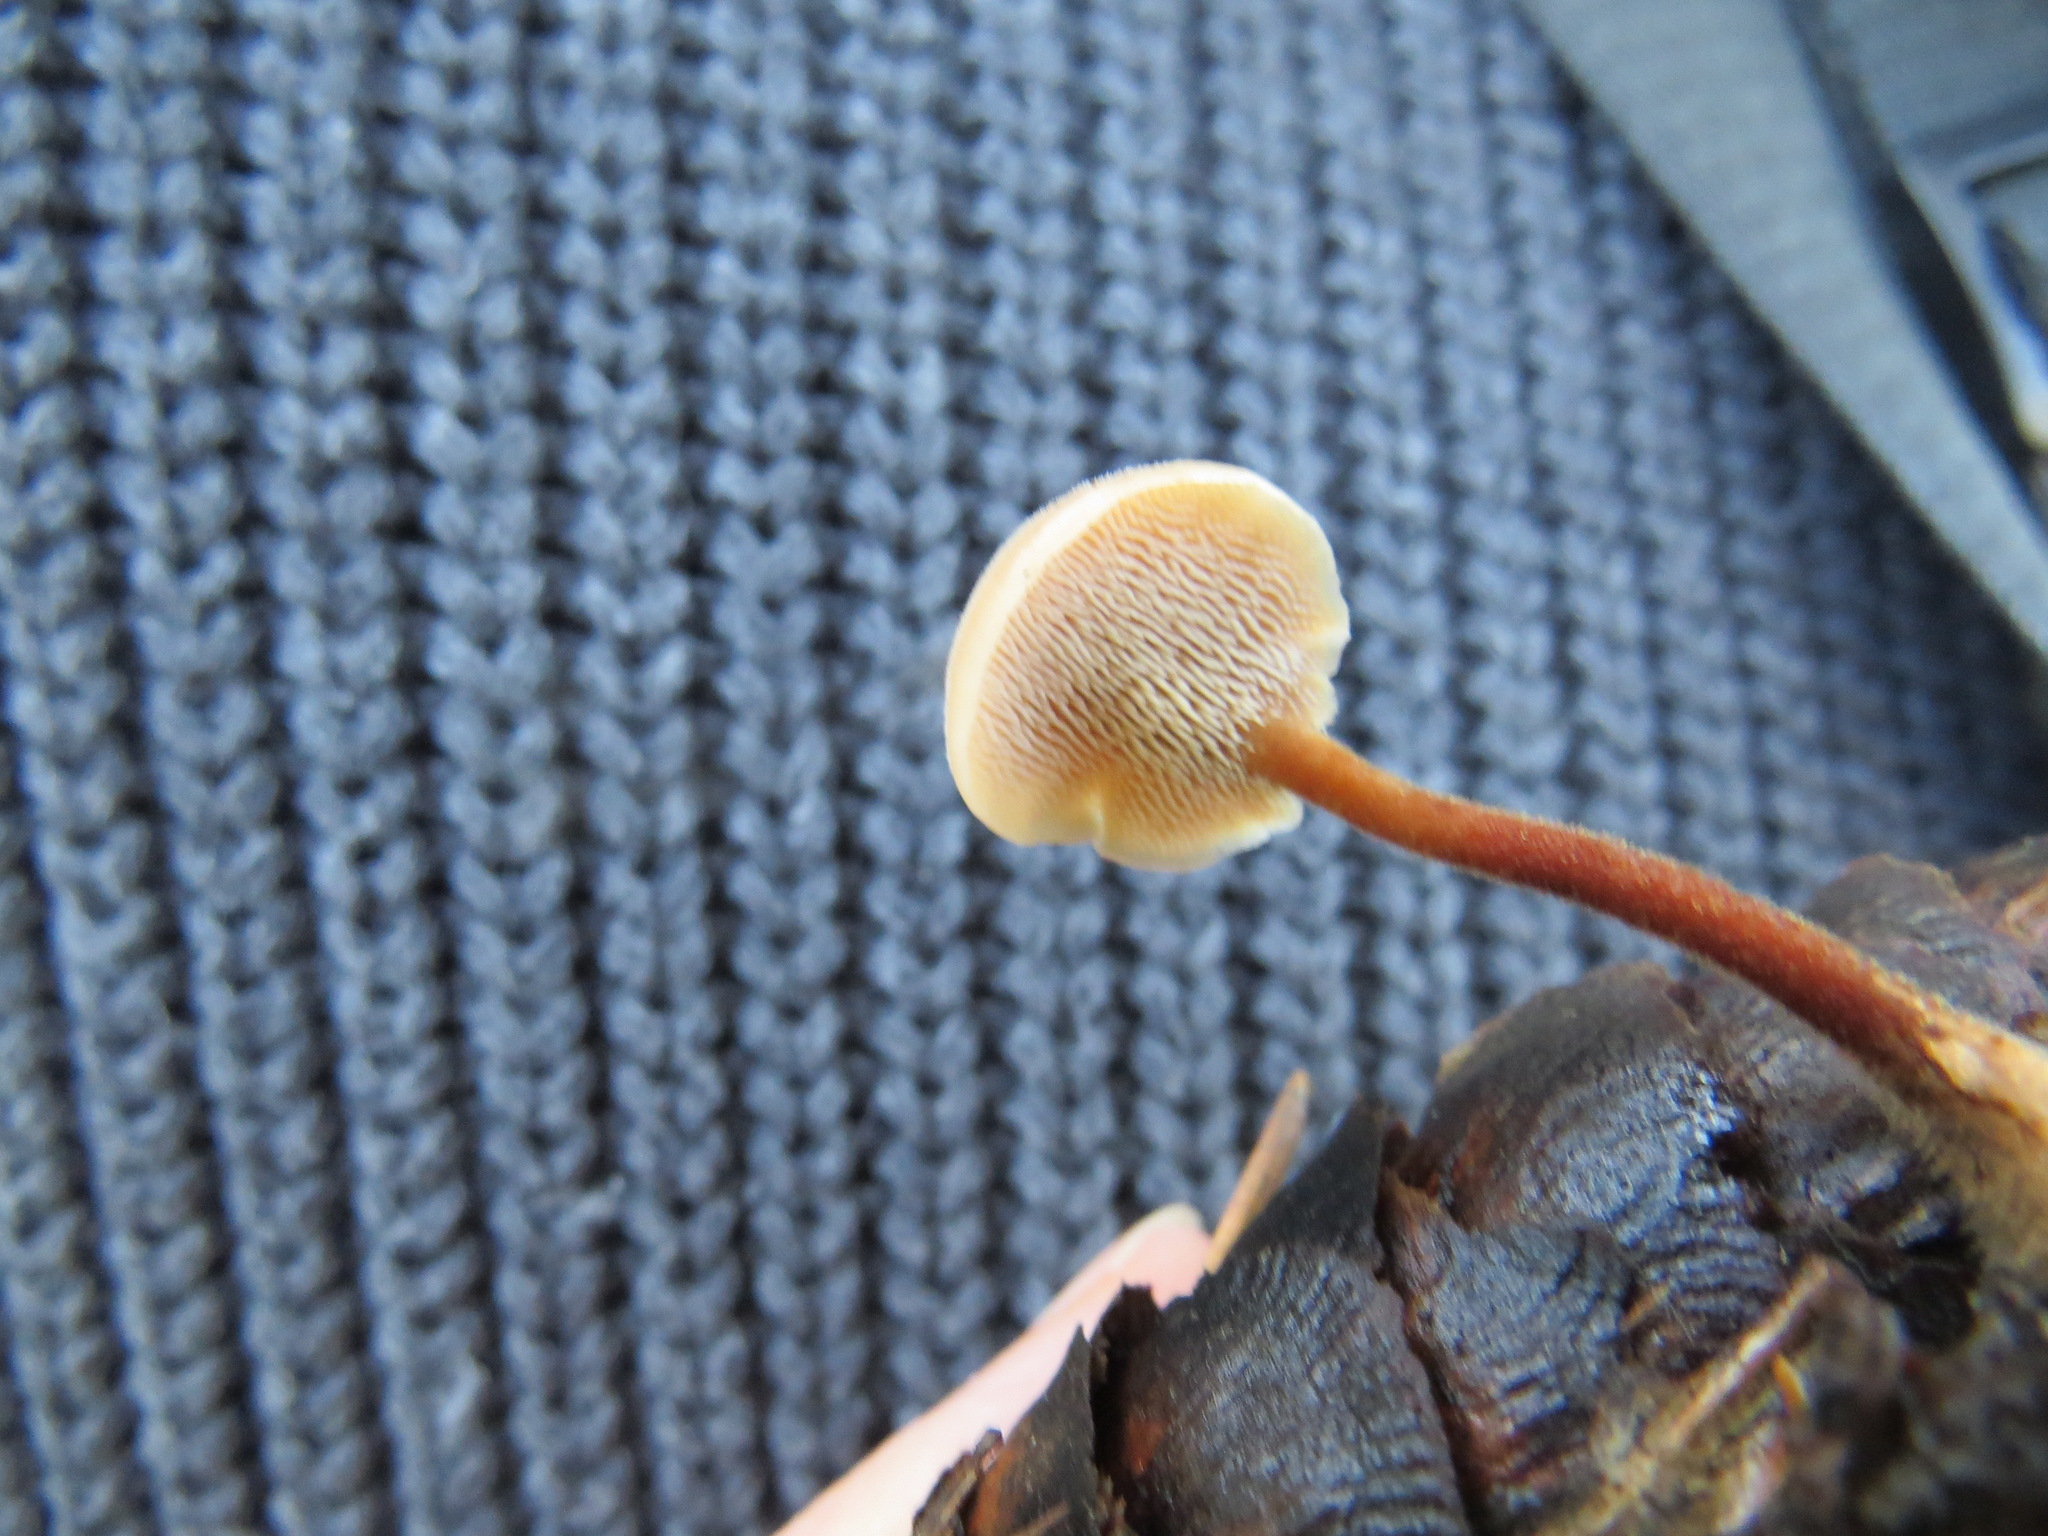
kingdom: Fungi
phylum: Basidiomycota
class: Agaricomycetes
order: Russulales
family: Auriscalpiaceae
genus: Auriscalpium
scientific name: Auriscalpium vulgare
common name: Earpick fungus
